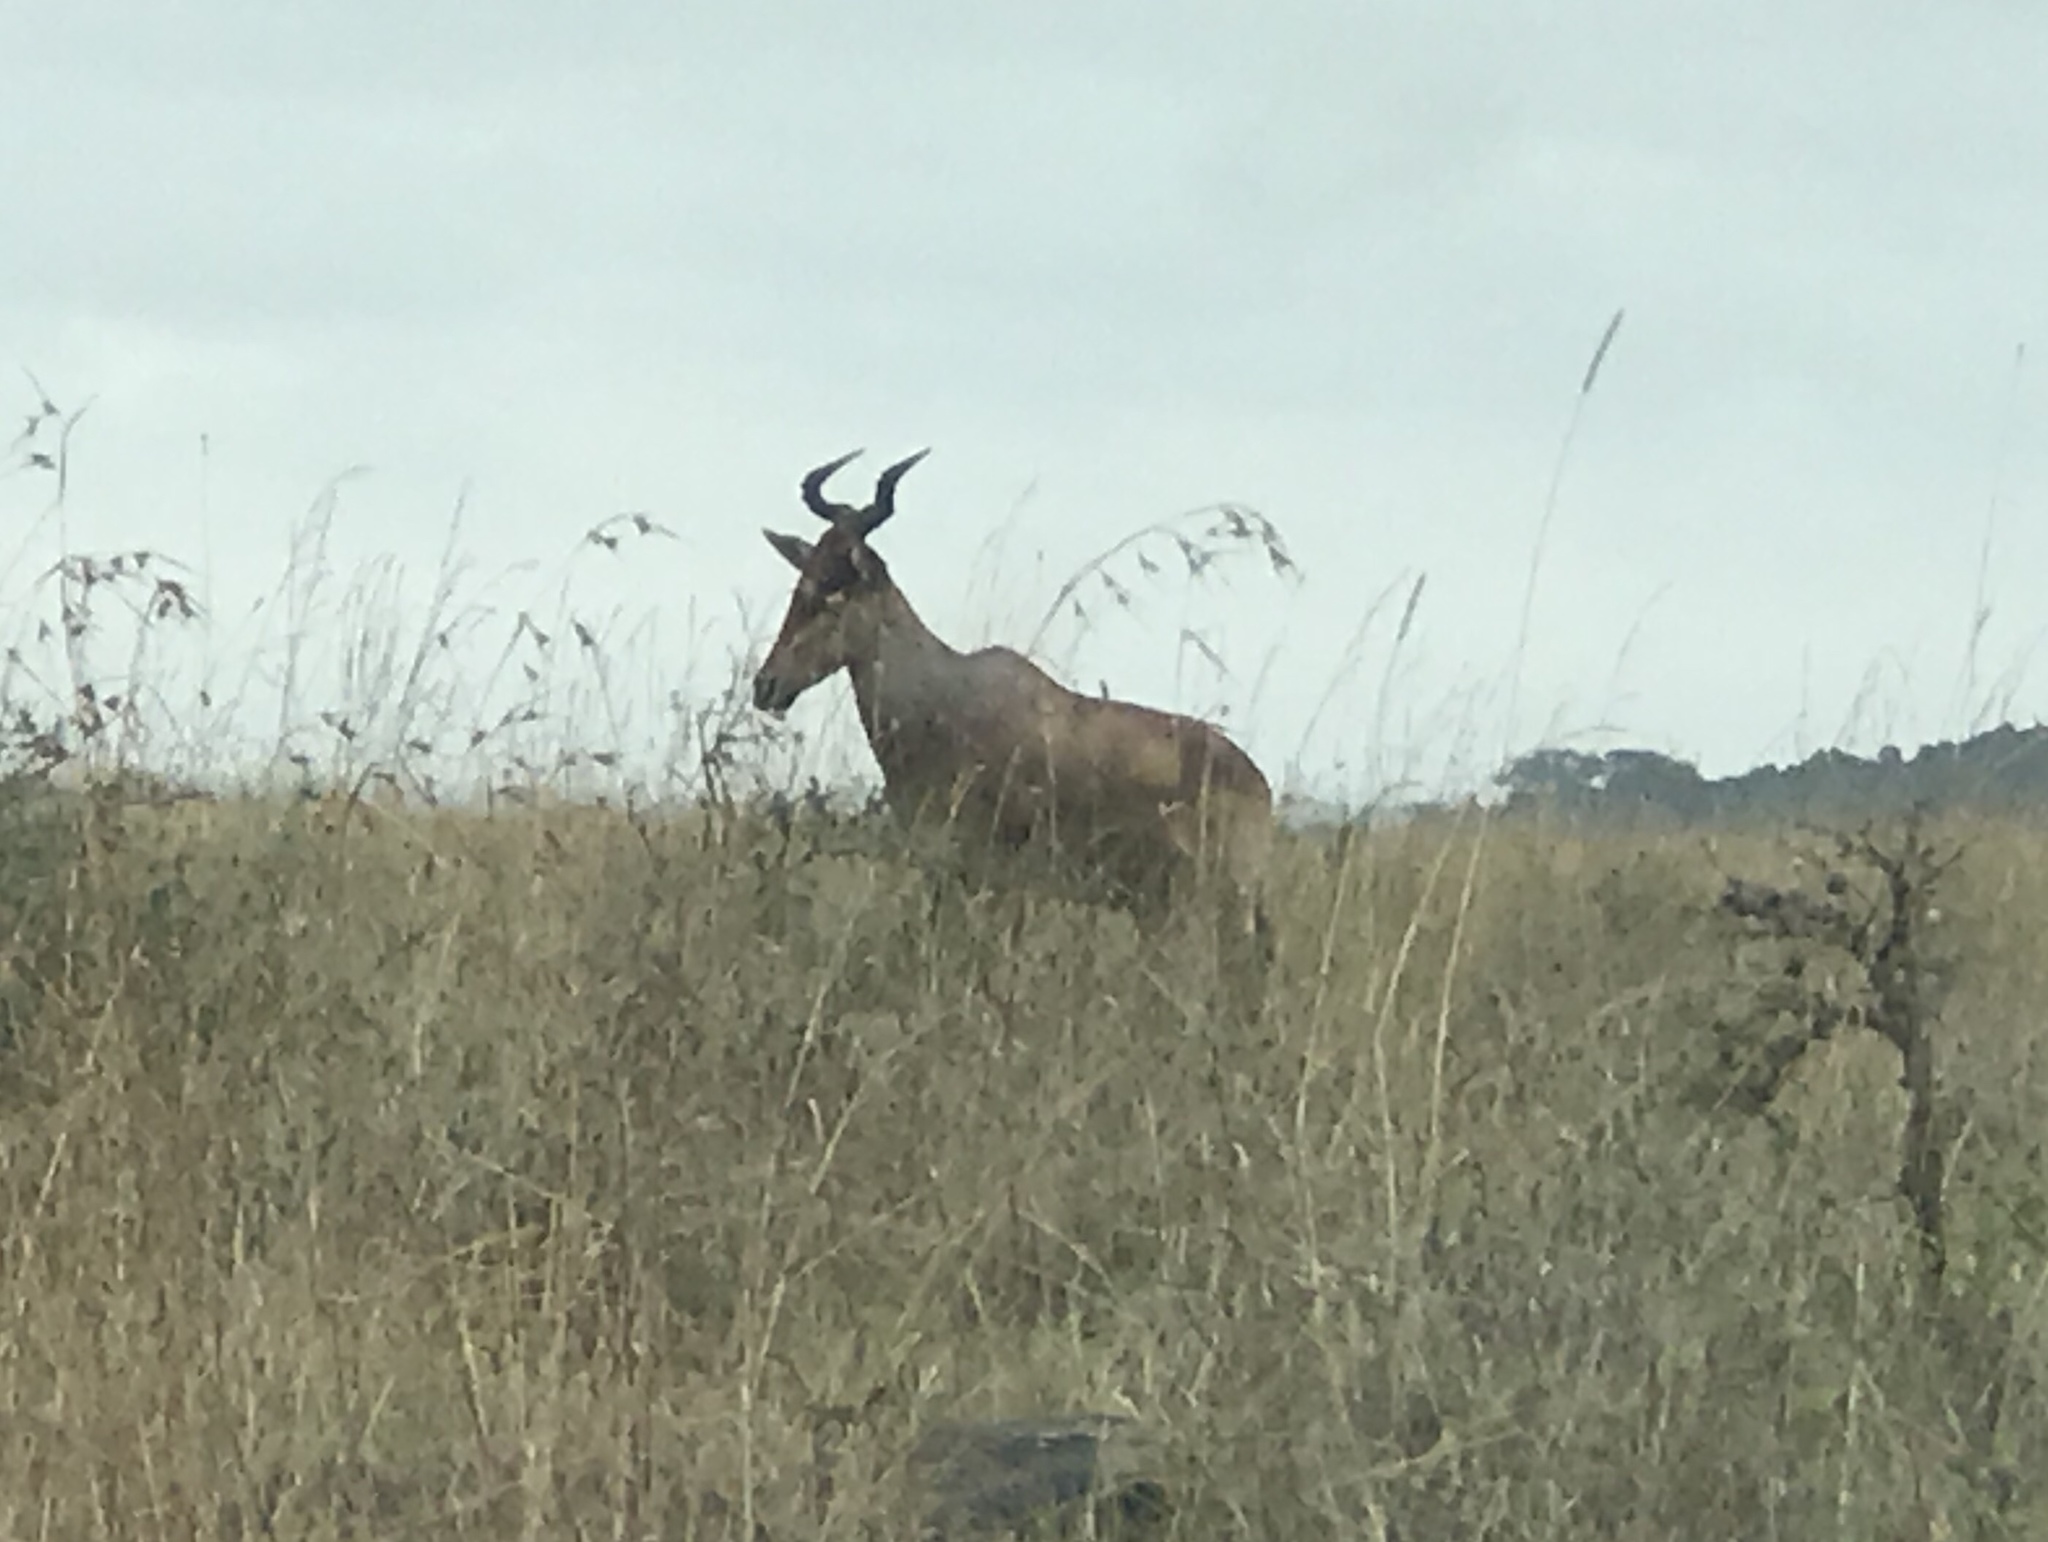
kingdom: Animalia
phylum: Chordata
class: Mammalia
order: Artiodactyla
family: Bovidae
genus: Alcelaphus
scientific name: Alcelaphus buselaphus
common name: Hartebeest
